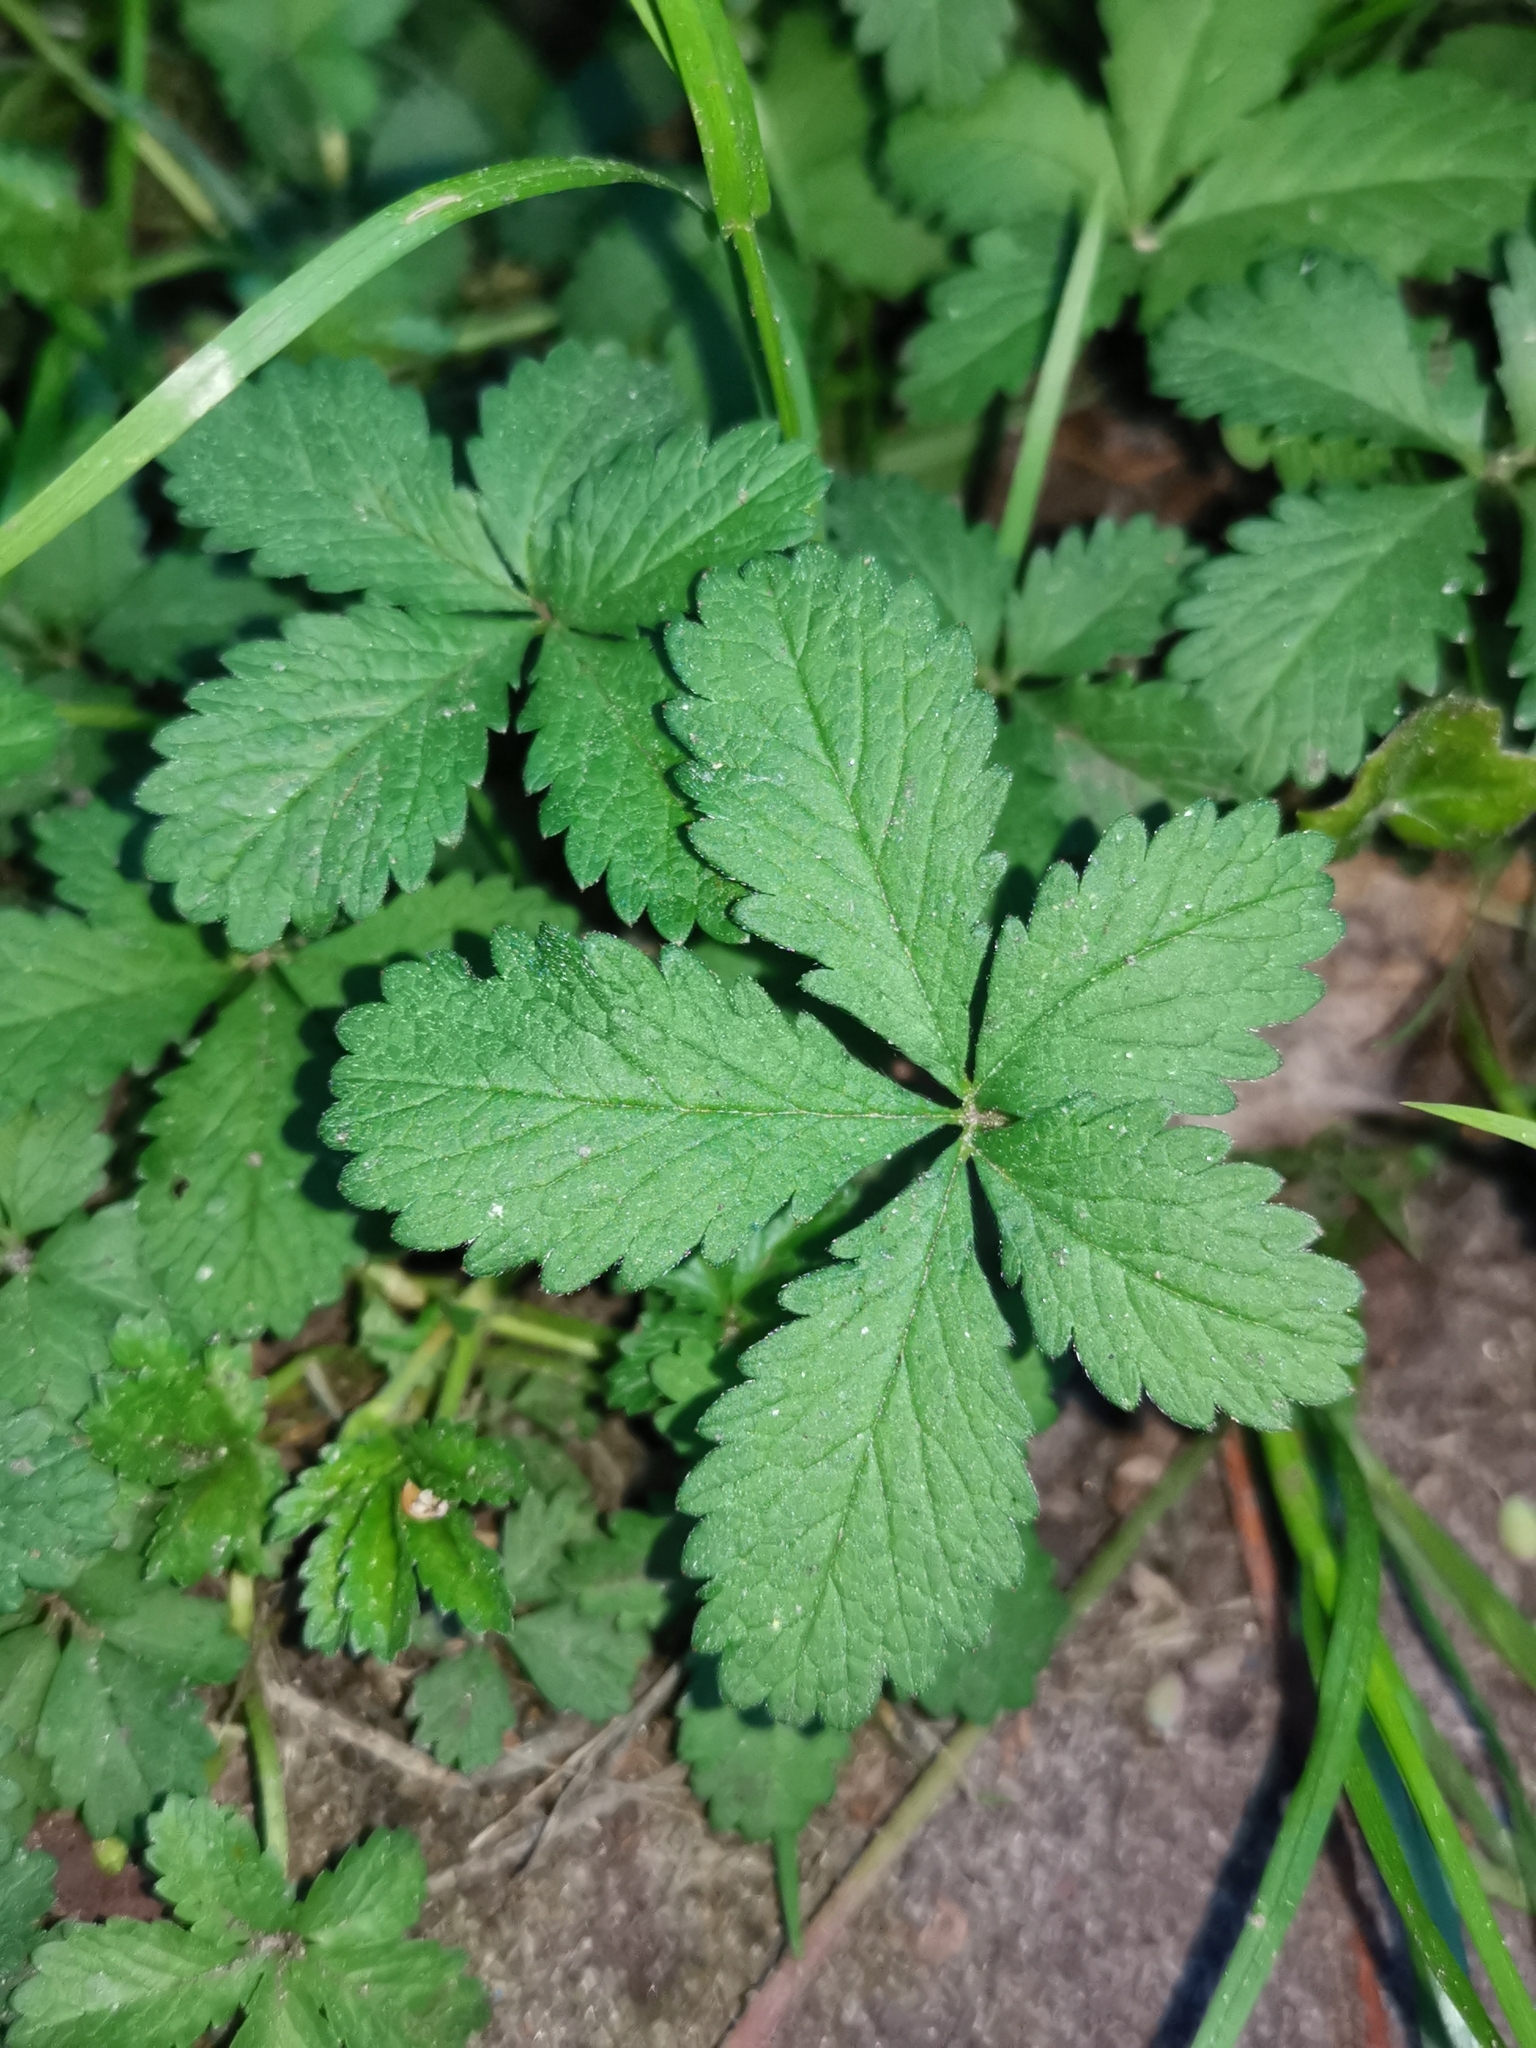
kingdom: Plantae
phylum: Tracheophyta
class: Magnoliopsida
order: Rosales
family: Rosaceae
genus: Potentilla
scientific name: Potentilla reptans
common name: Creeping cinquefoil
